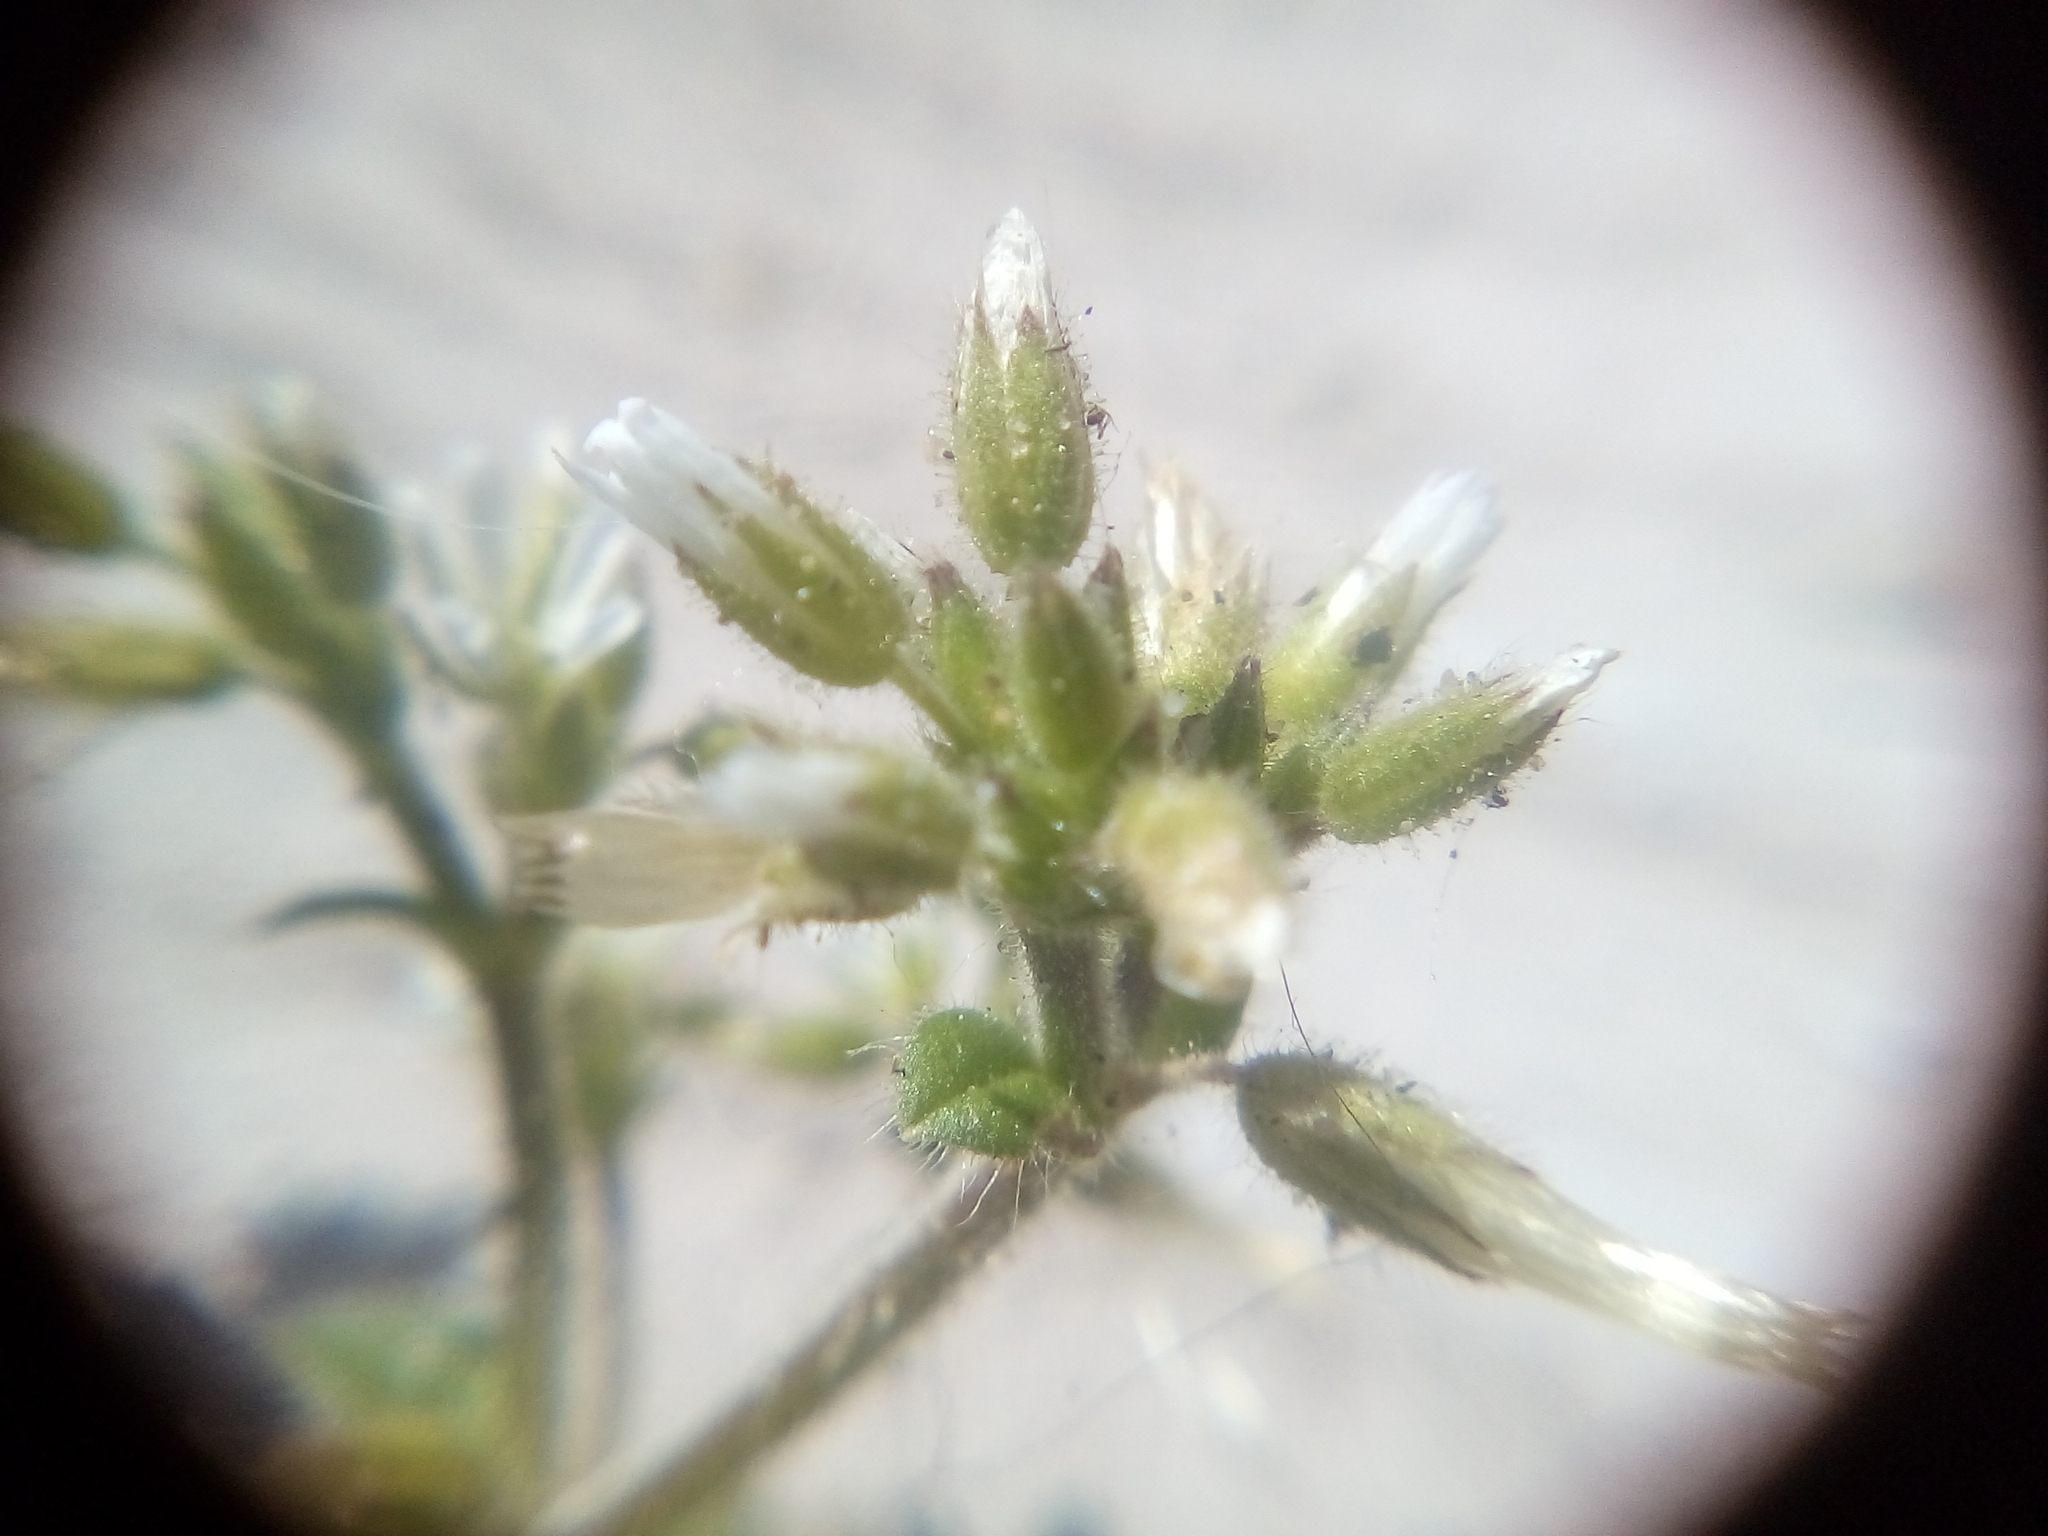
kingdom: Plantae
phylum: Tracheophyta
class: Magnoliopsida
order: Caryophyllales
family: Caryophyllaceae
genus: Cerastium
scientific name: Cerastium glomeratum
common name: Sticky chickweed
